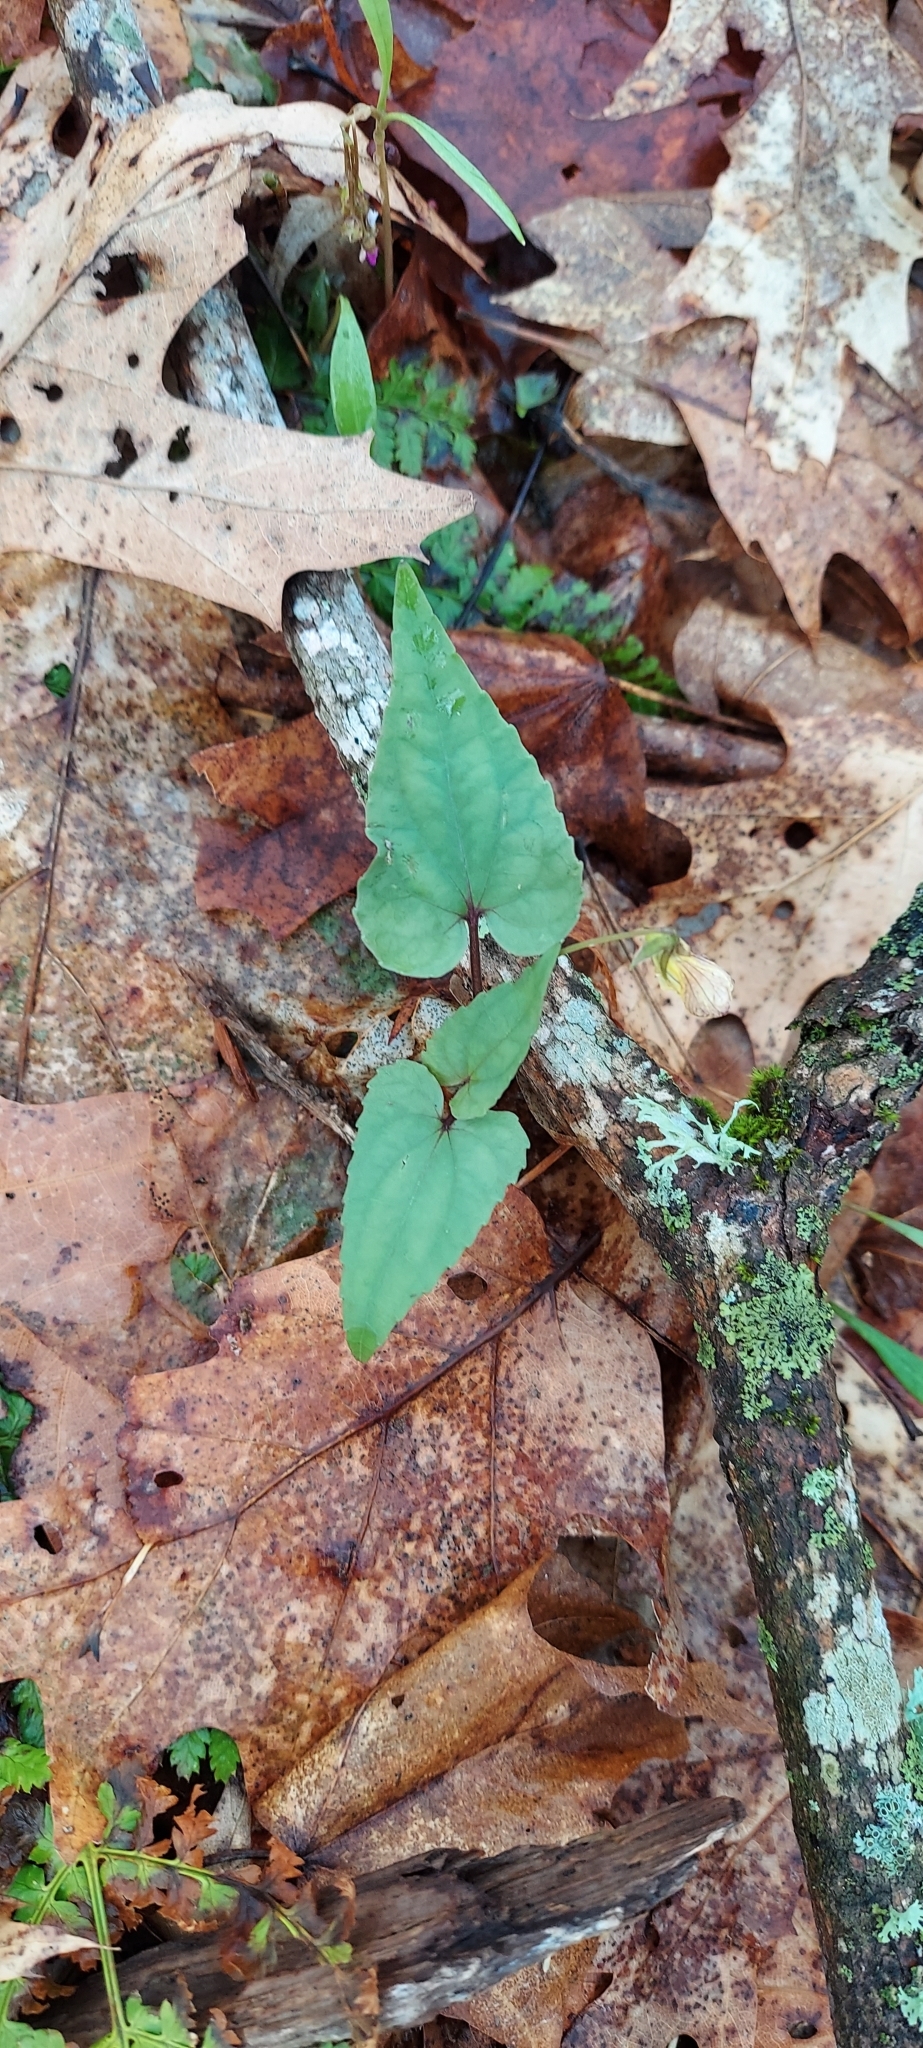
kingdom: Plantae
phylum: Tracheophyta
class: Magnoliopsida
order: Malpighiales
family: Violaceae
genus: Viola
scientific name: Viola hastata
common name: Spear-leaf violet
